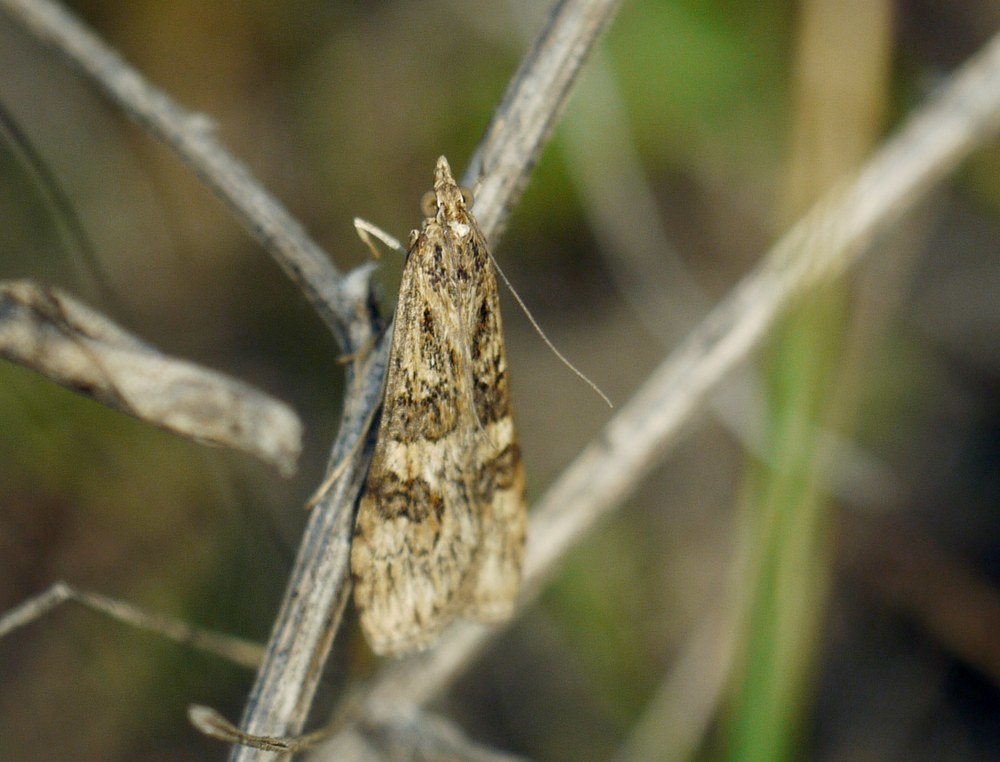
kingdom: Animalia
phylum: Arthropoda
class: Insecta
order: Lepidoptera
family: Crambidae
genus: Nomophila
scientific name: Nomophila noctuella
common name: Rush veneer
